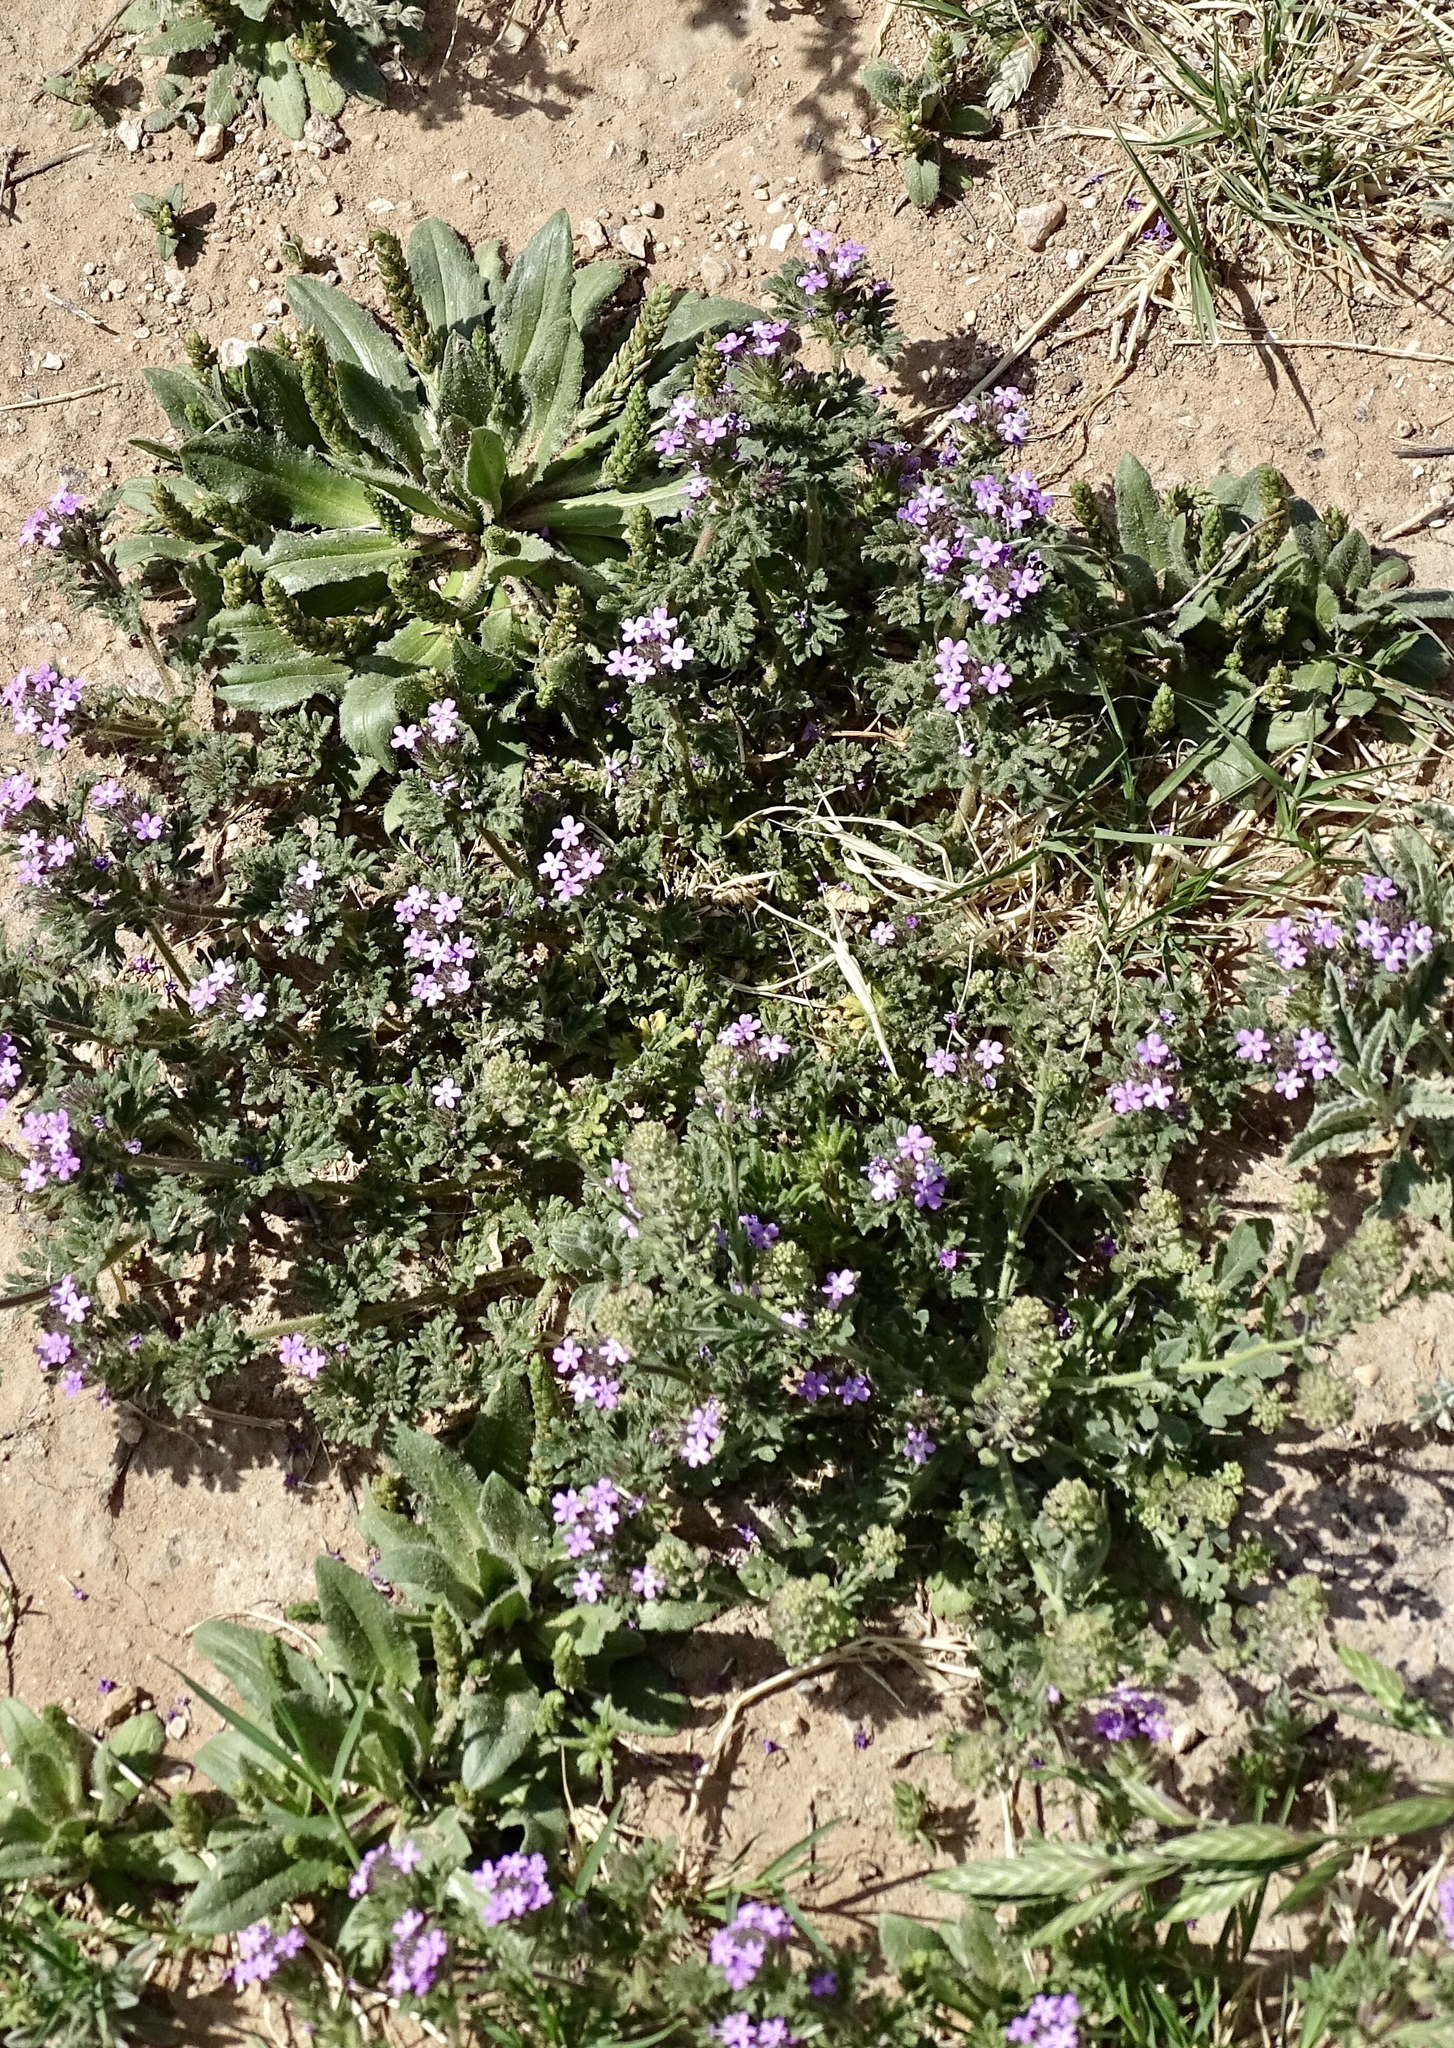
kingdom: Plantae
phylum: Tracheophyta
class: Magnoliopsida
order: Lamiales
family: Verbenaceae
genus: Verbena
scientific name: Verbena pumila
